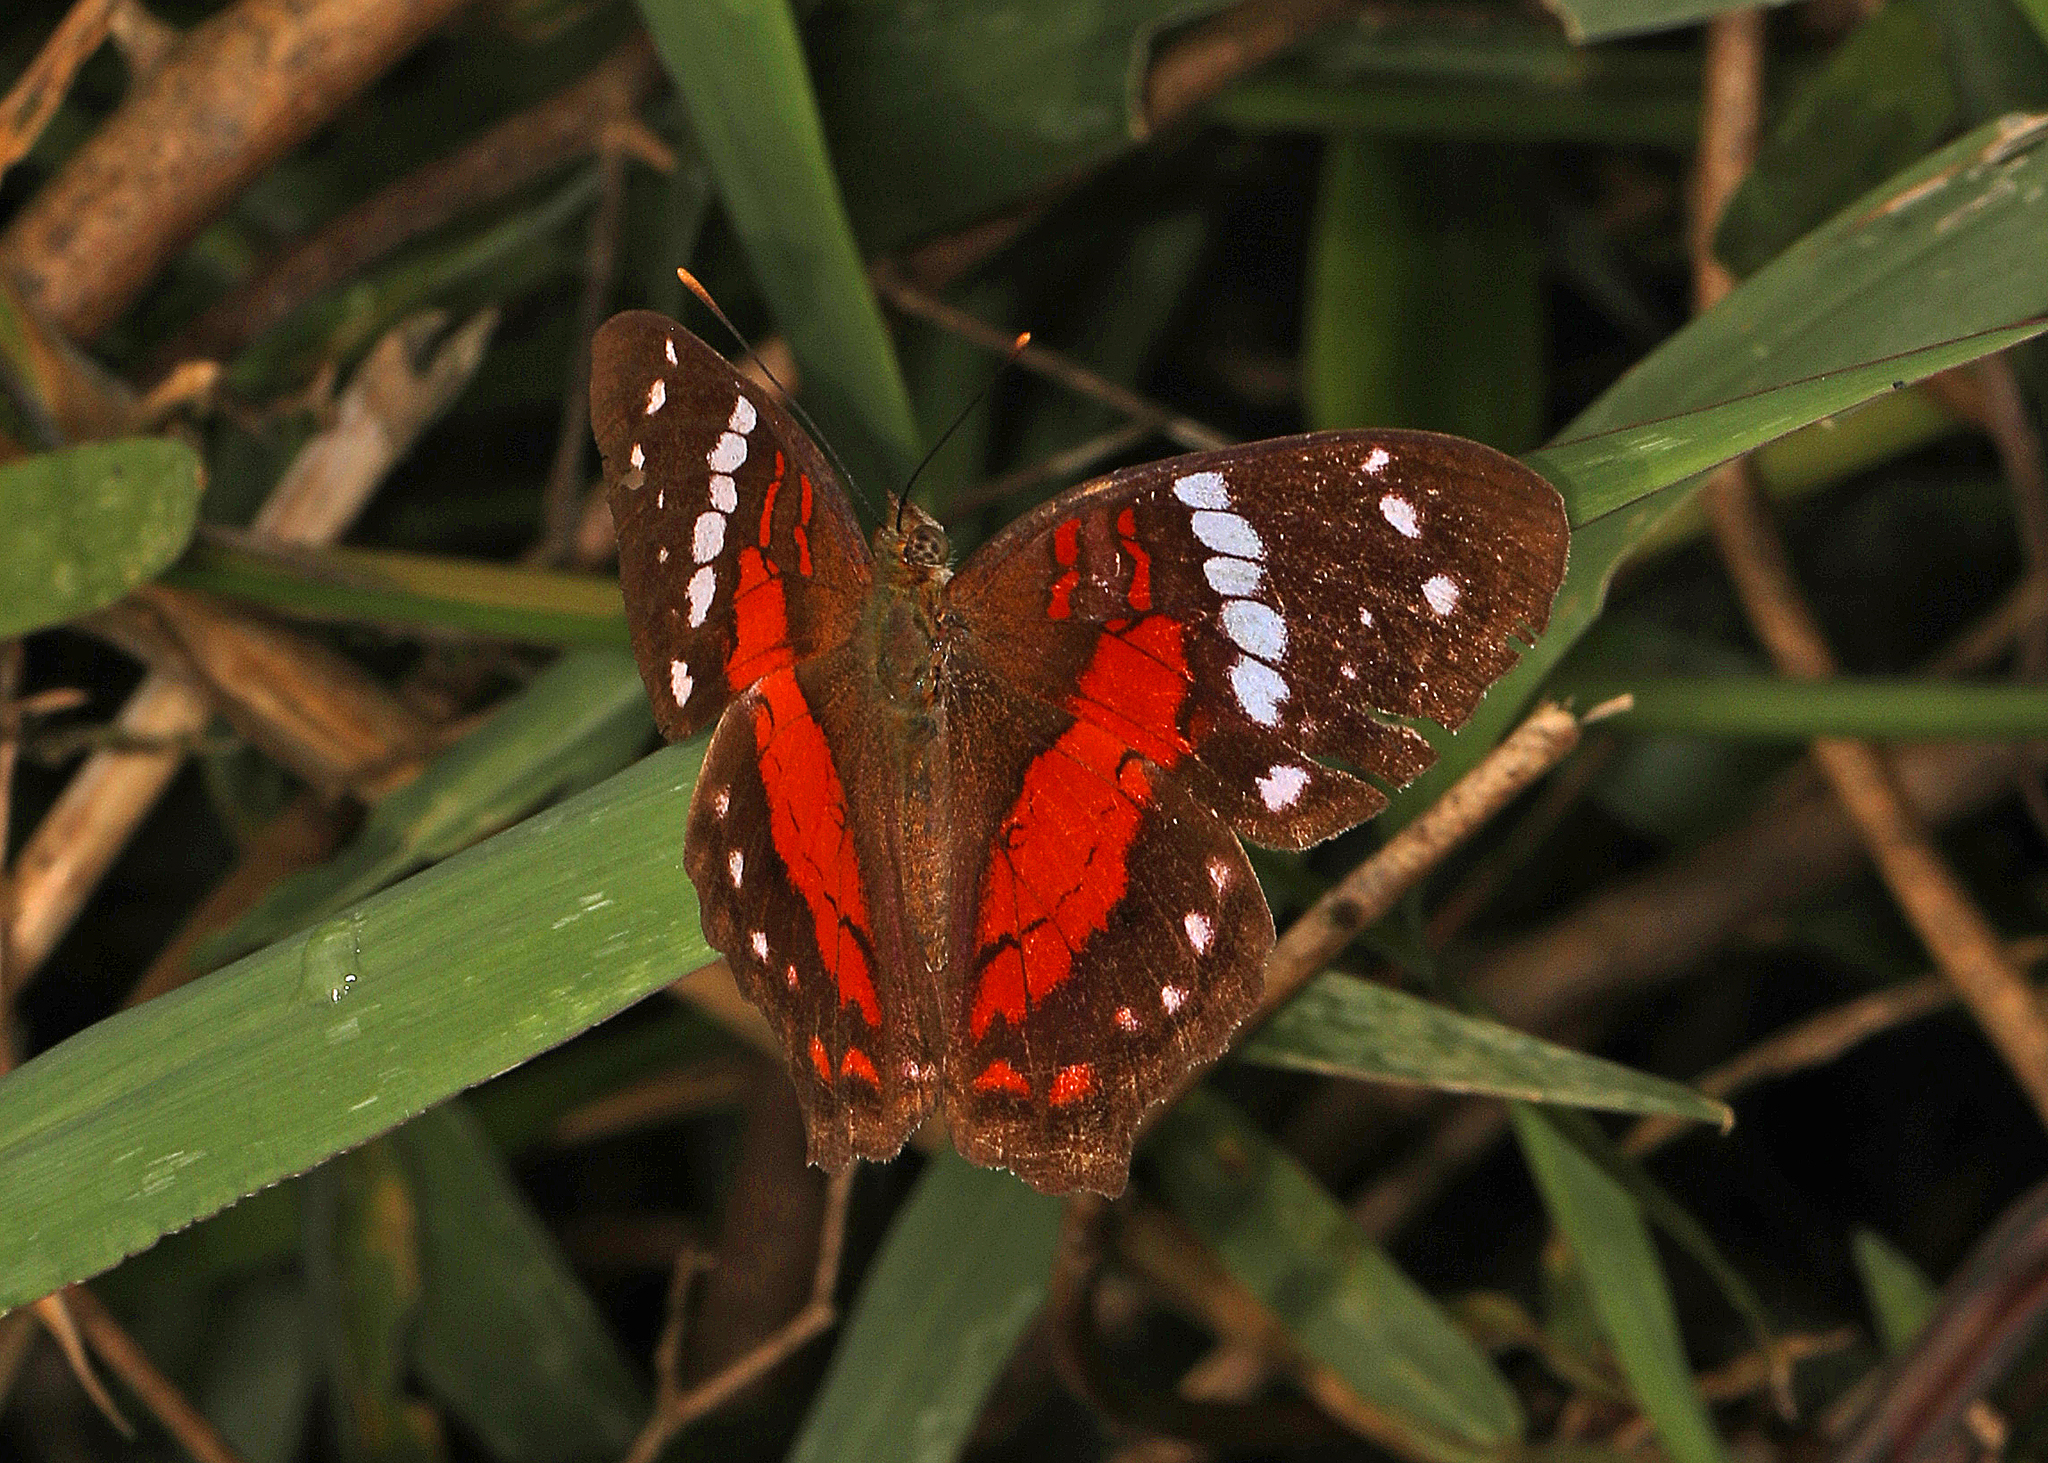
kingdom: Animalia
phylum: Arthropoda
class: Insecta
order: Lepidoptera
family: Nymphalidae
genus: Anartia
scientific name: Anartia amathea
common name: Red peacock
